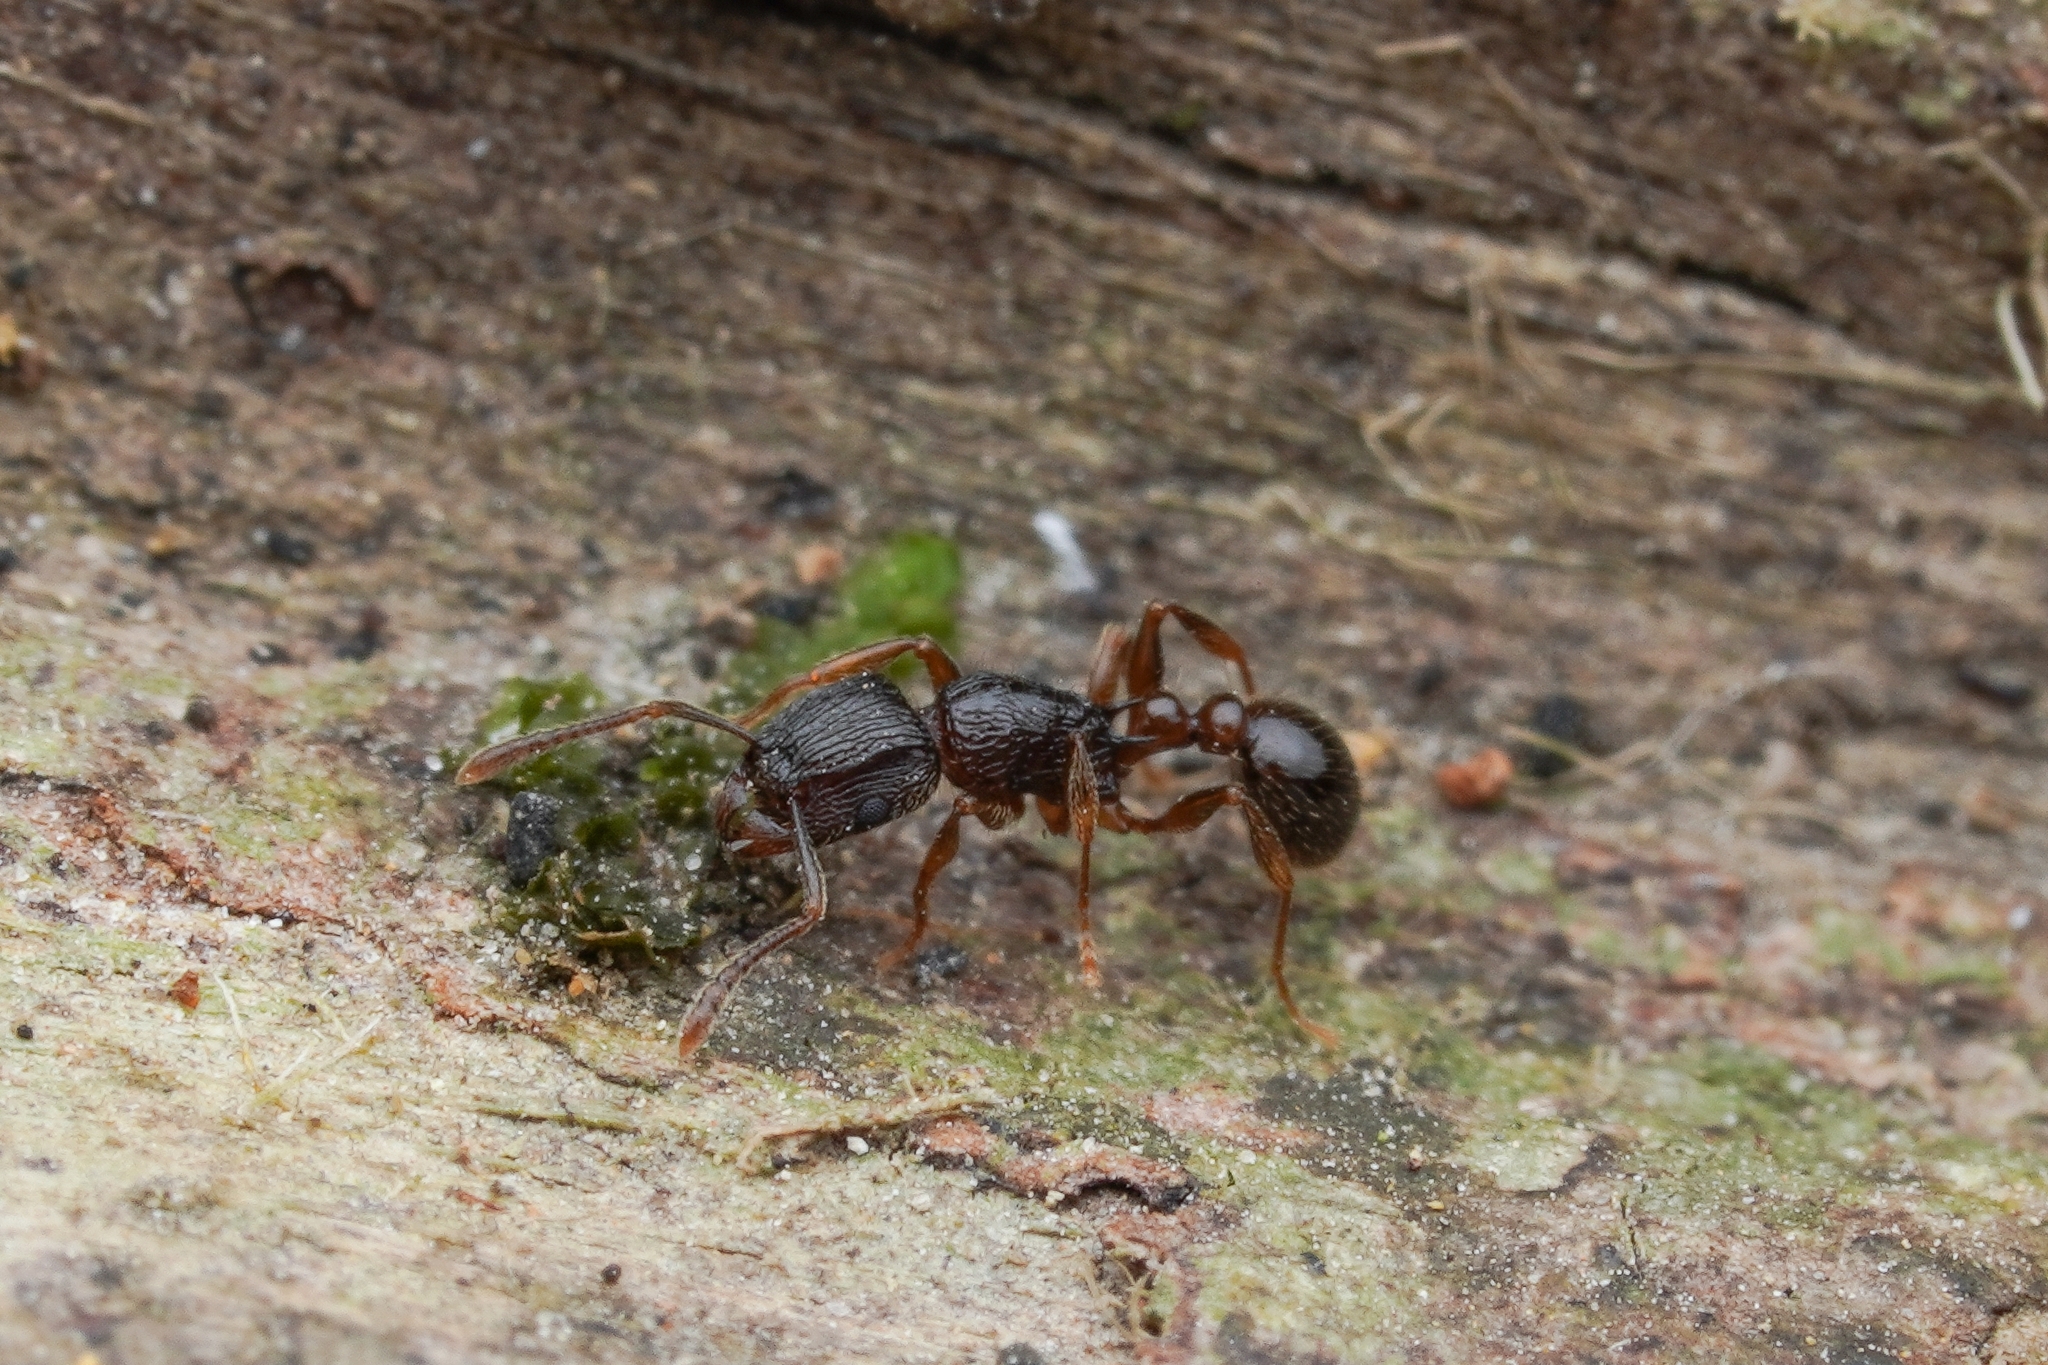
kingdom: Animalia
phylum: Arthropoda
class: Insecta
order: Hymenoptera
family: Formicidae
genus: Tetramorium
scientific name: Tetramorium grassii
